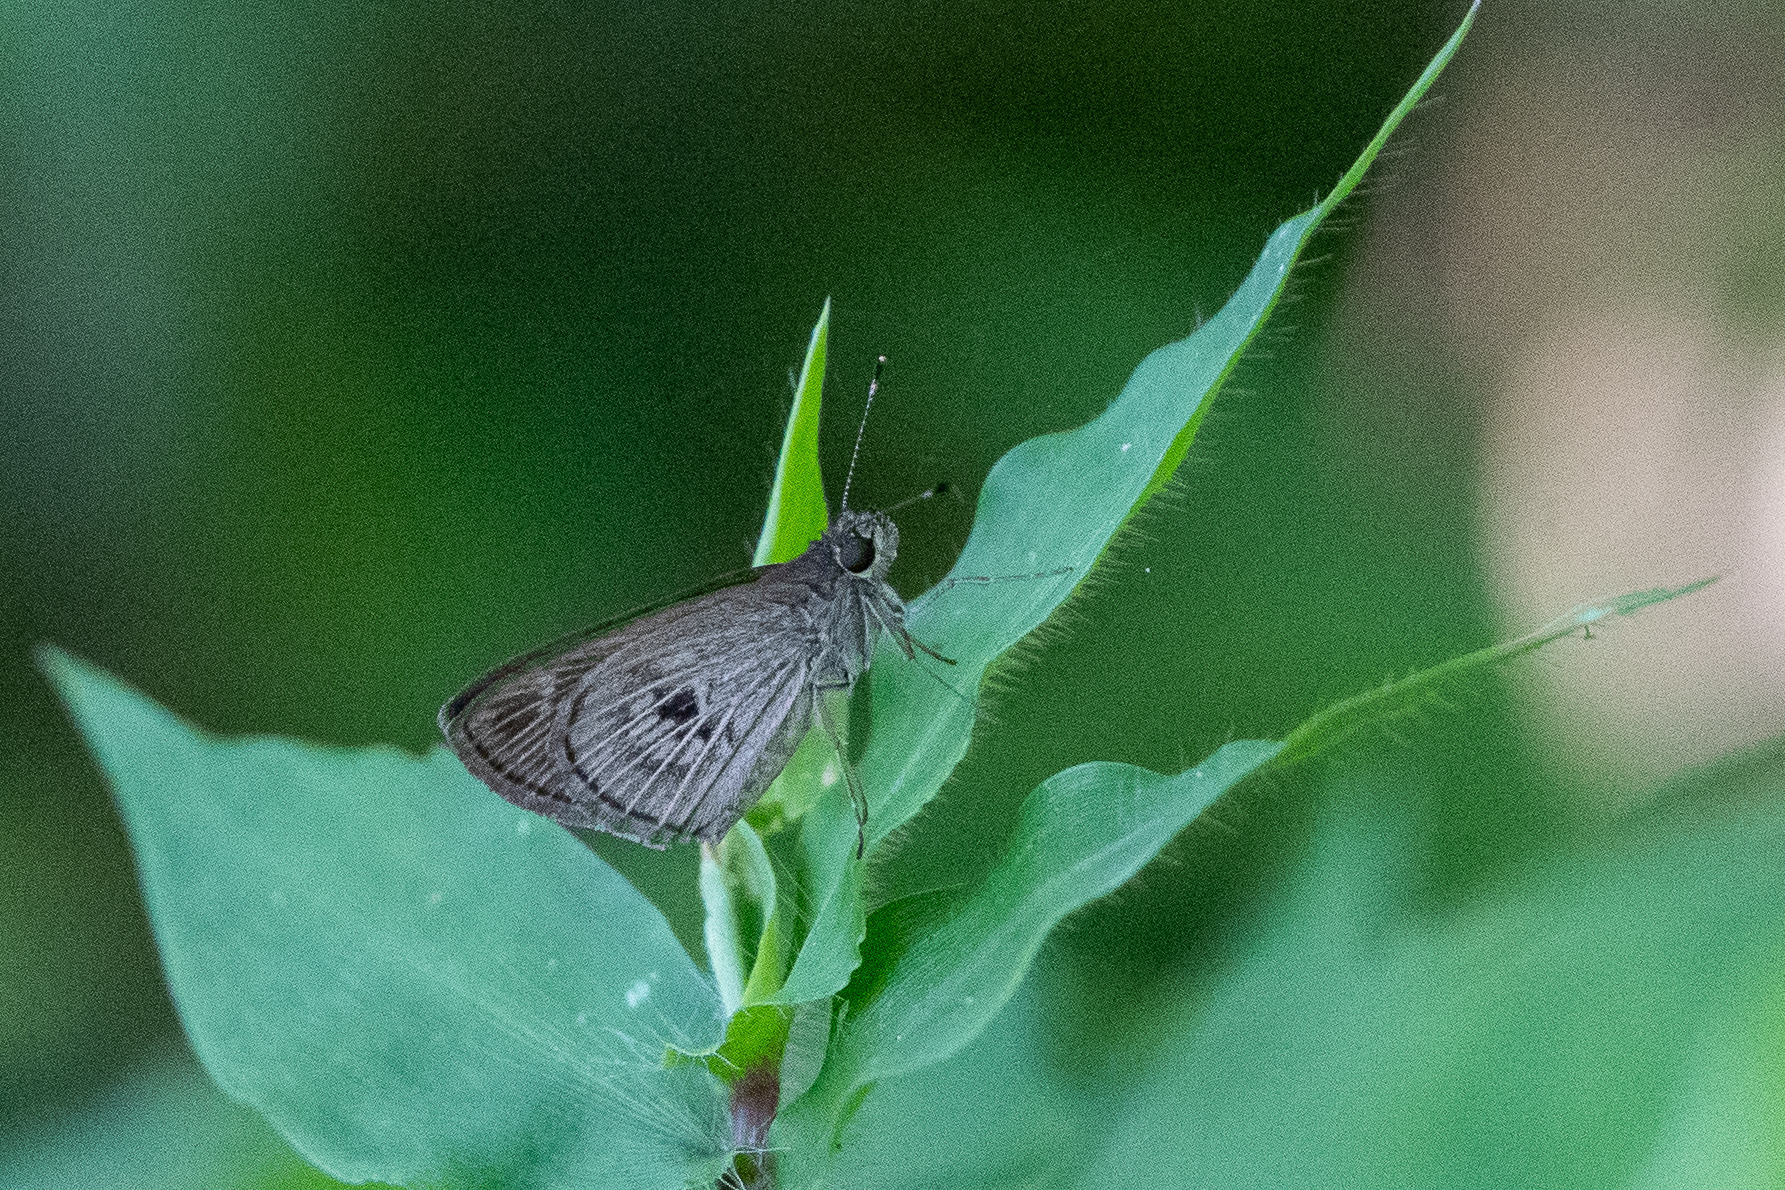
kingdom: Animalia
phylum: Arthropoda
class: Insecta
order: Lepidoptera
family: Hesperiidae
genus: Cymaenes
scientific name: Cymaenes tripunctata
